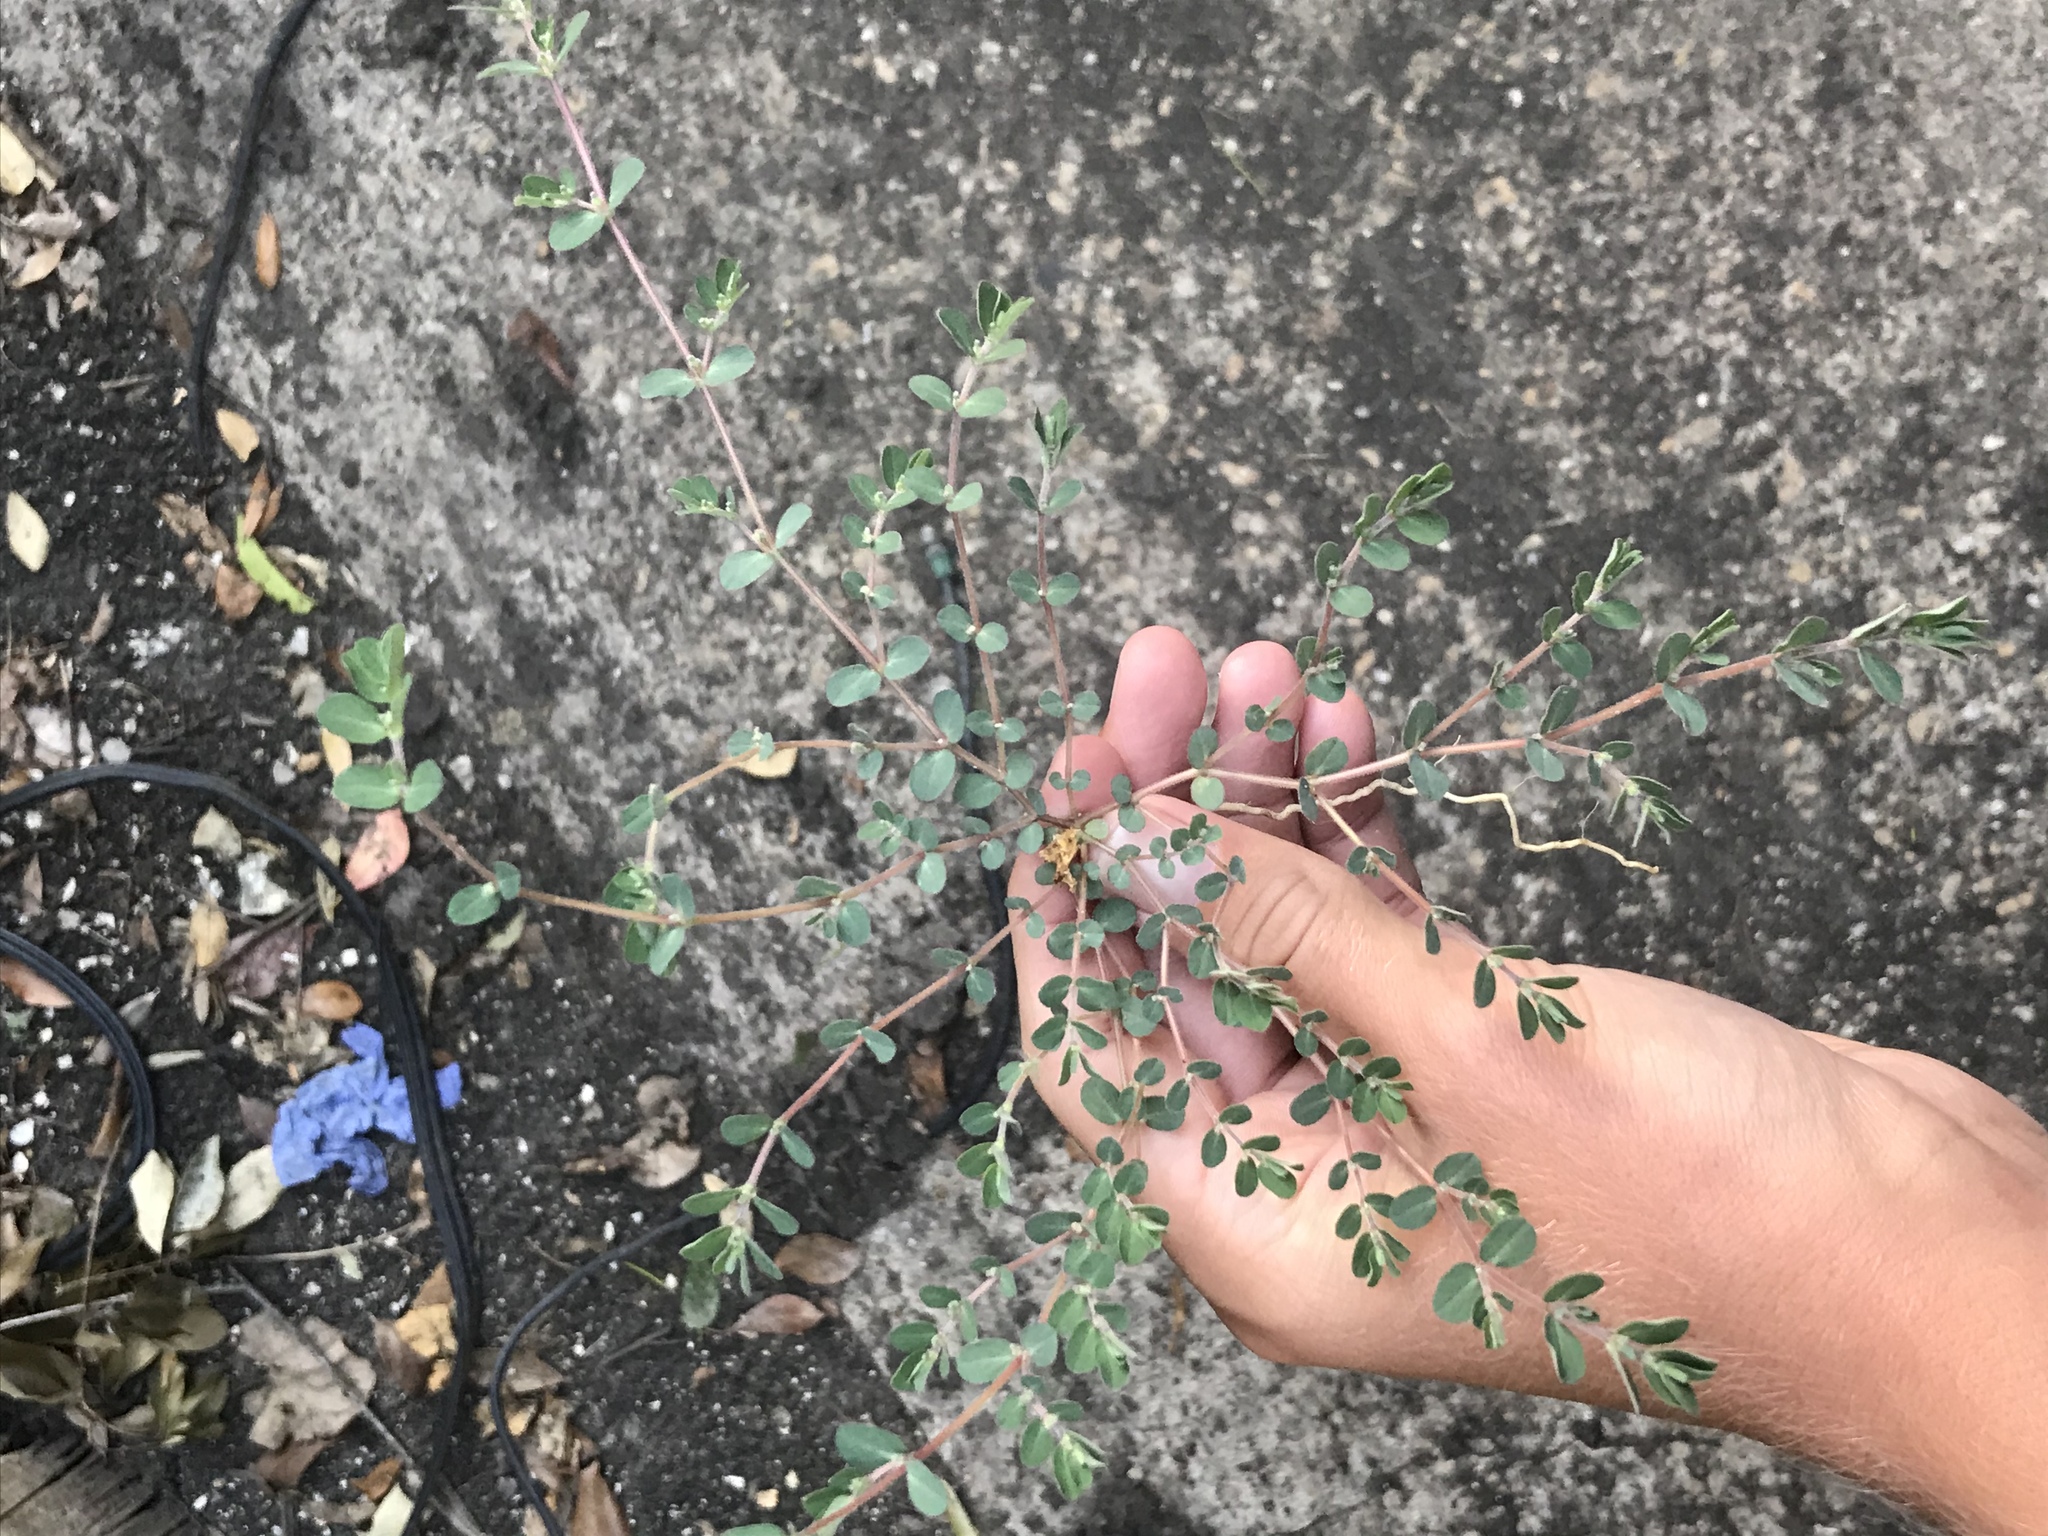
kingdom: Plantae
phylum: Tracheophyta
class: Magnoliopsida
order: Malpighiales
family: Euphorbiaceae
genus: Euphorbia
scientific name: Euphorbia prostrata
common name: Prostrate sandmat
